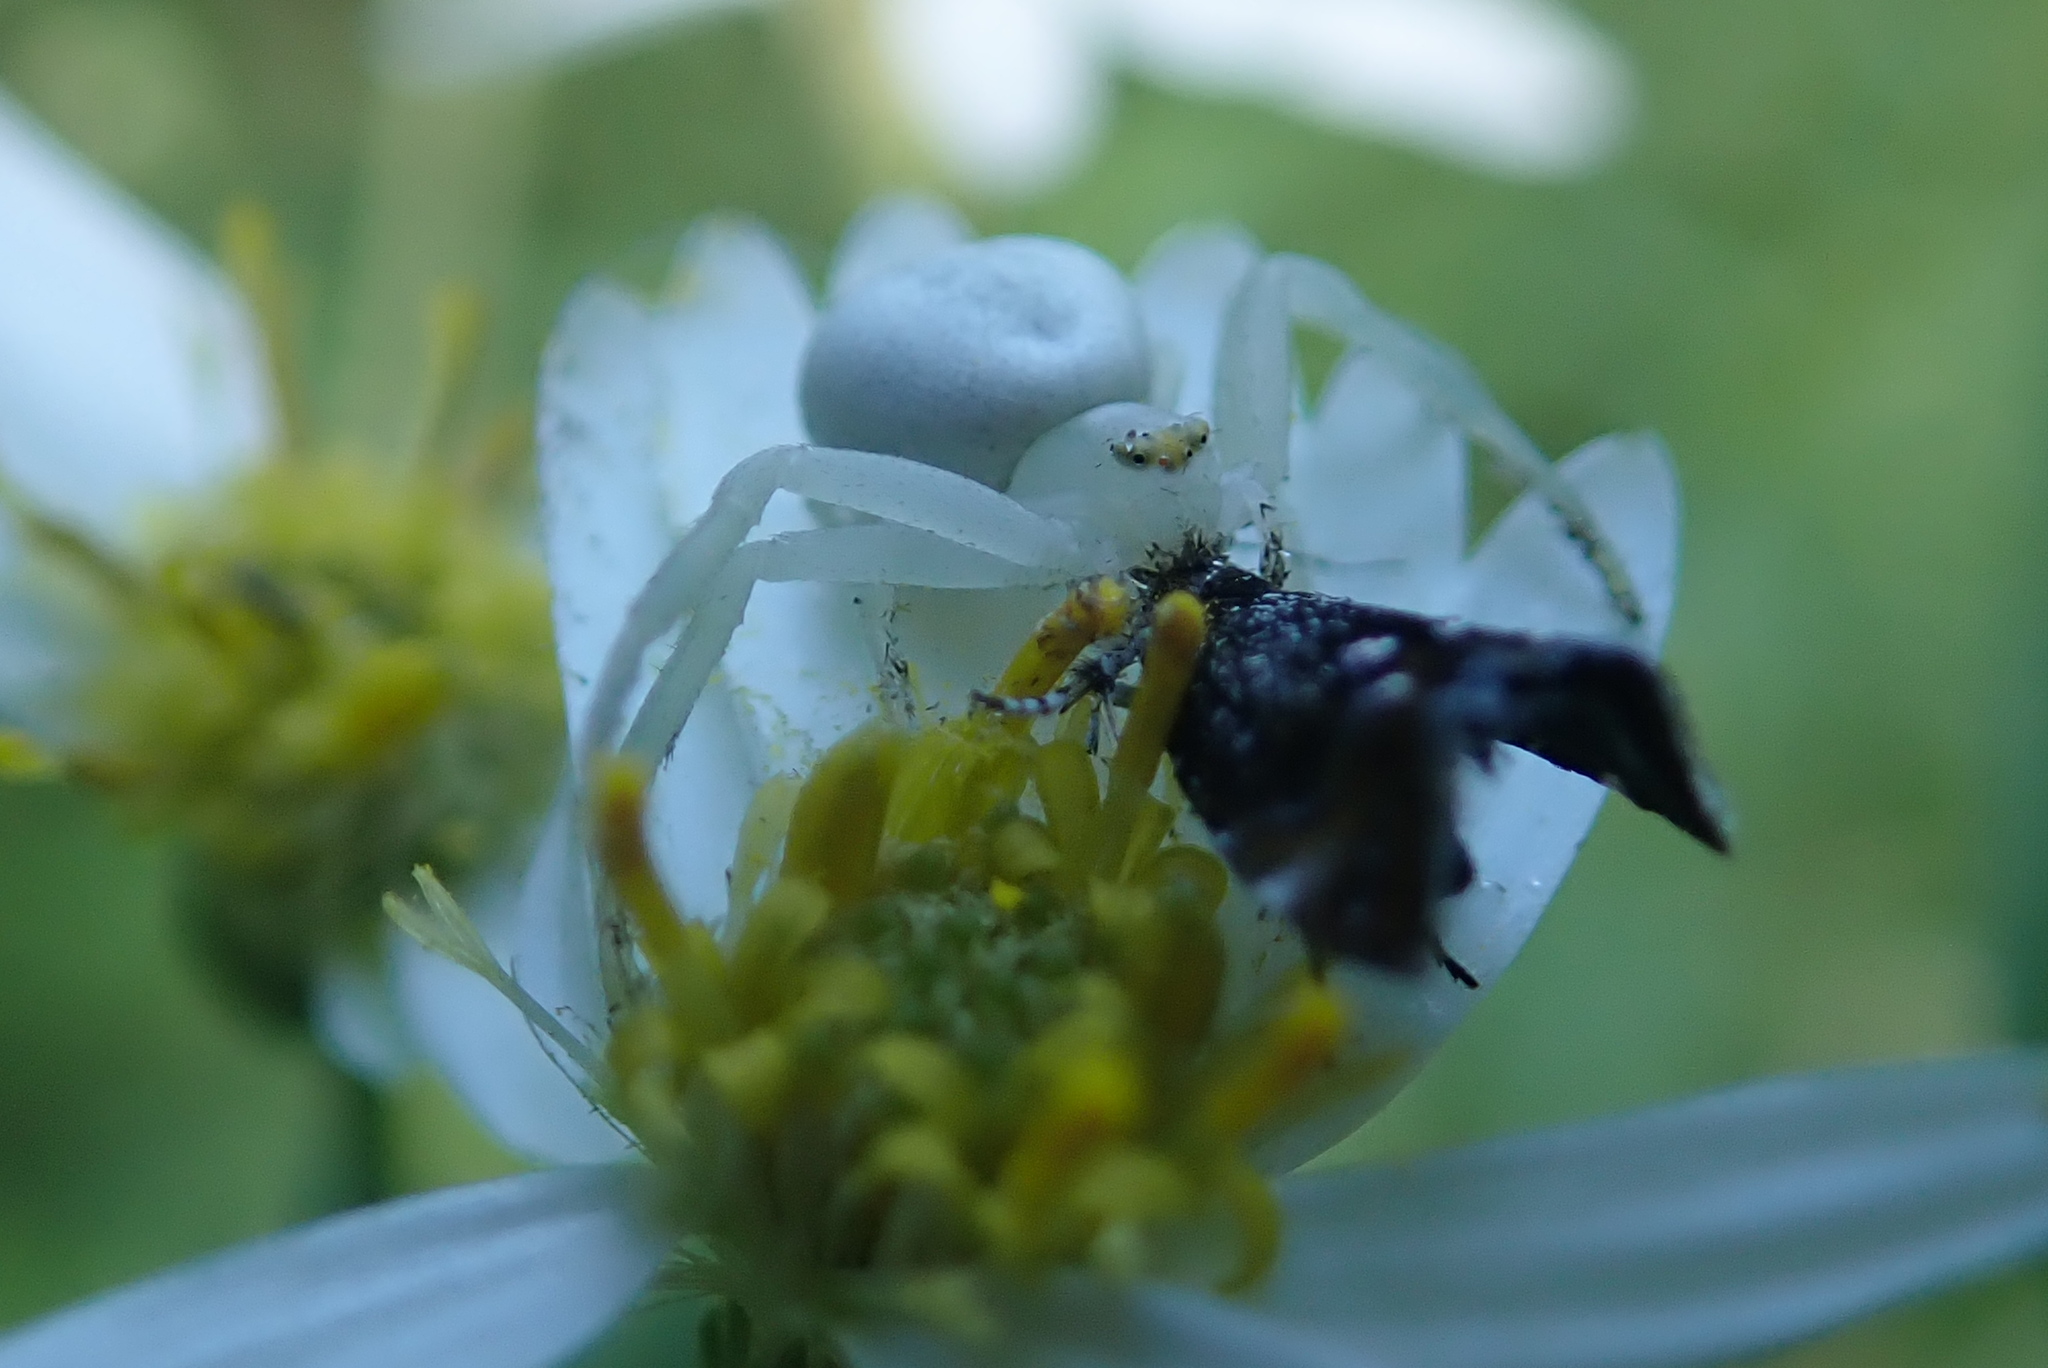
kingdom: Animalia
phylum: Arthropoda
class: Arachnida
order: Araneae
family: Thomisidae
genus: Misumessus
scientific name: Misumessus oblongus
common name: American green crab spider
